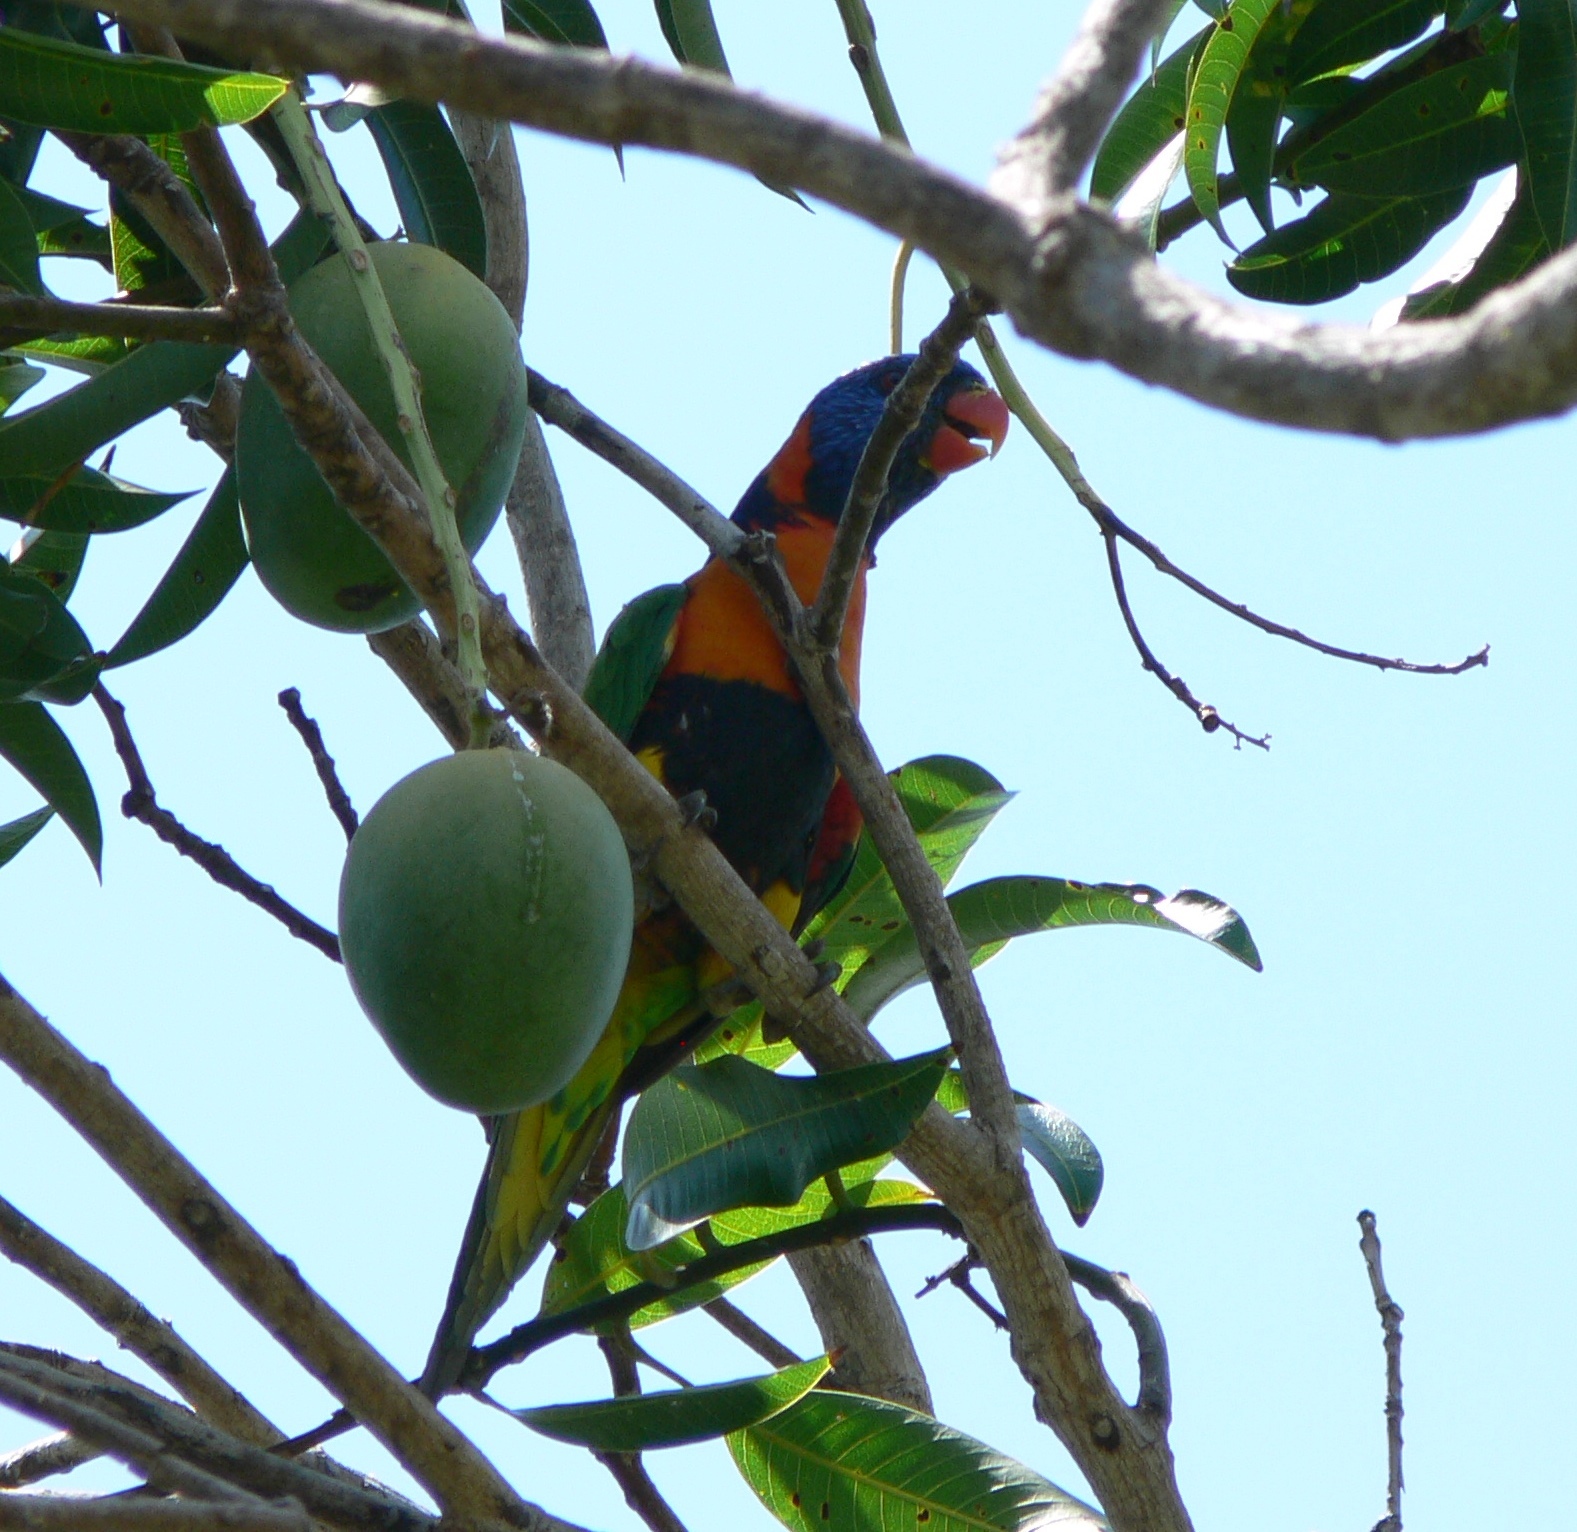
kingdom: Animalia
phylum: Chordata
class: Aves
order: Psittaciformes
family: Psittacidae
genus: Trichoglossus
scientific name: Trichoglossus rubritorquis
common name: Red-collared lorikeet
